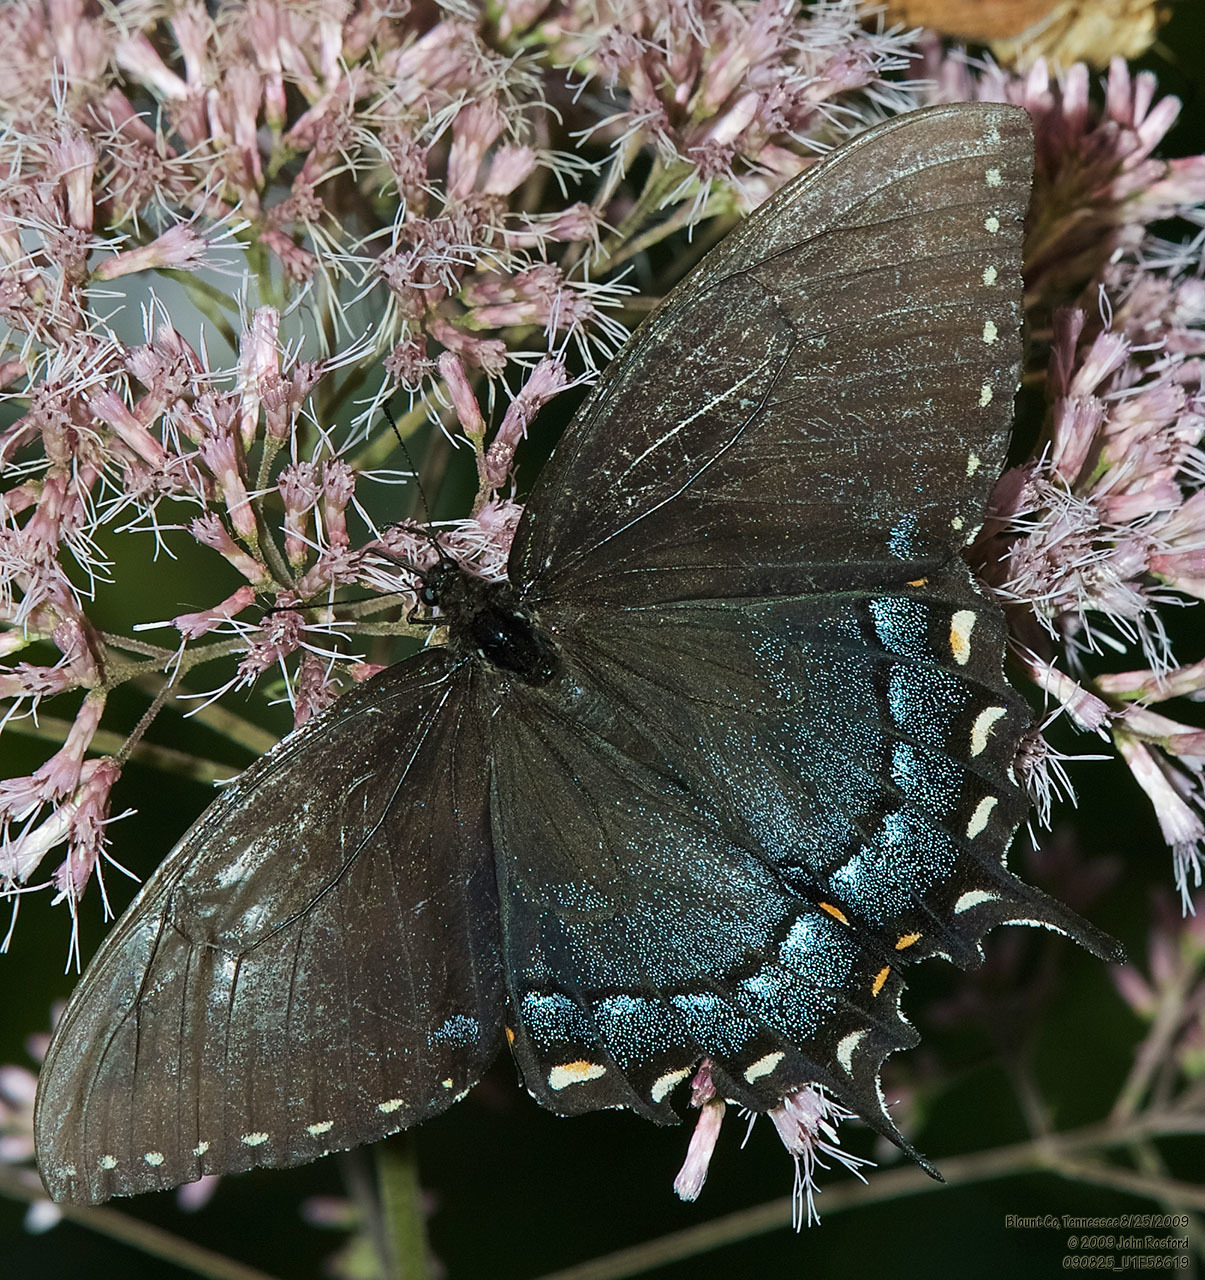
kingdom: Animalia
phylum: Arthropoda
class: Insecta
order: Lepidoptera
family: Papilionidae
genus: Papilio
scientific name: Papilio glaucus
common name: Tiger swallowtail
